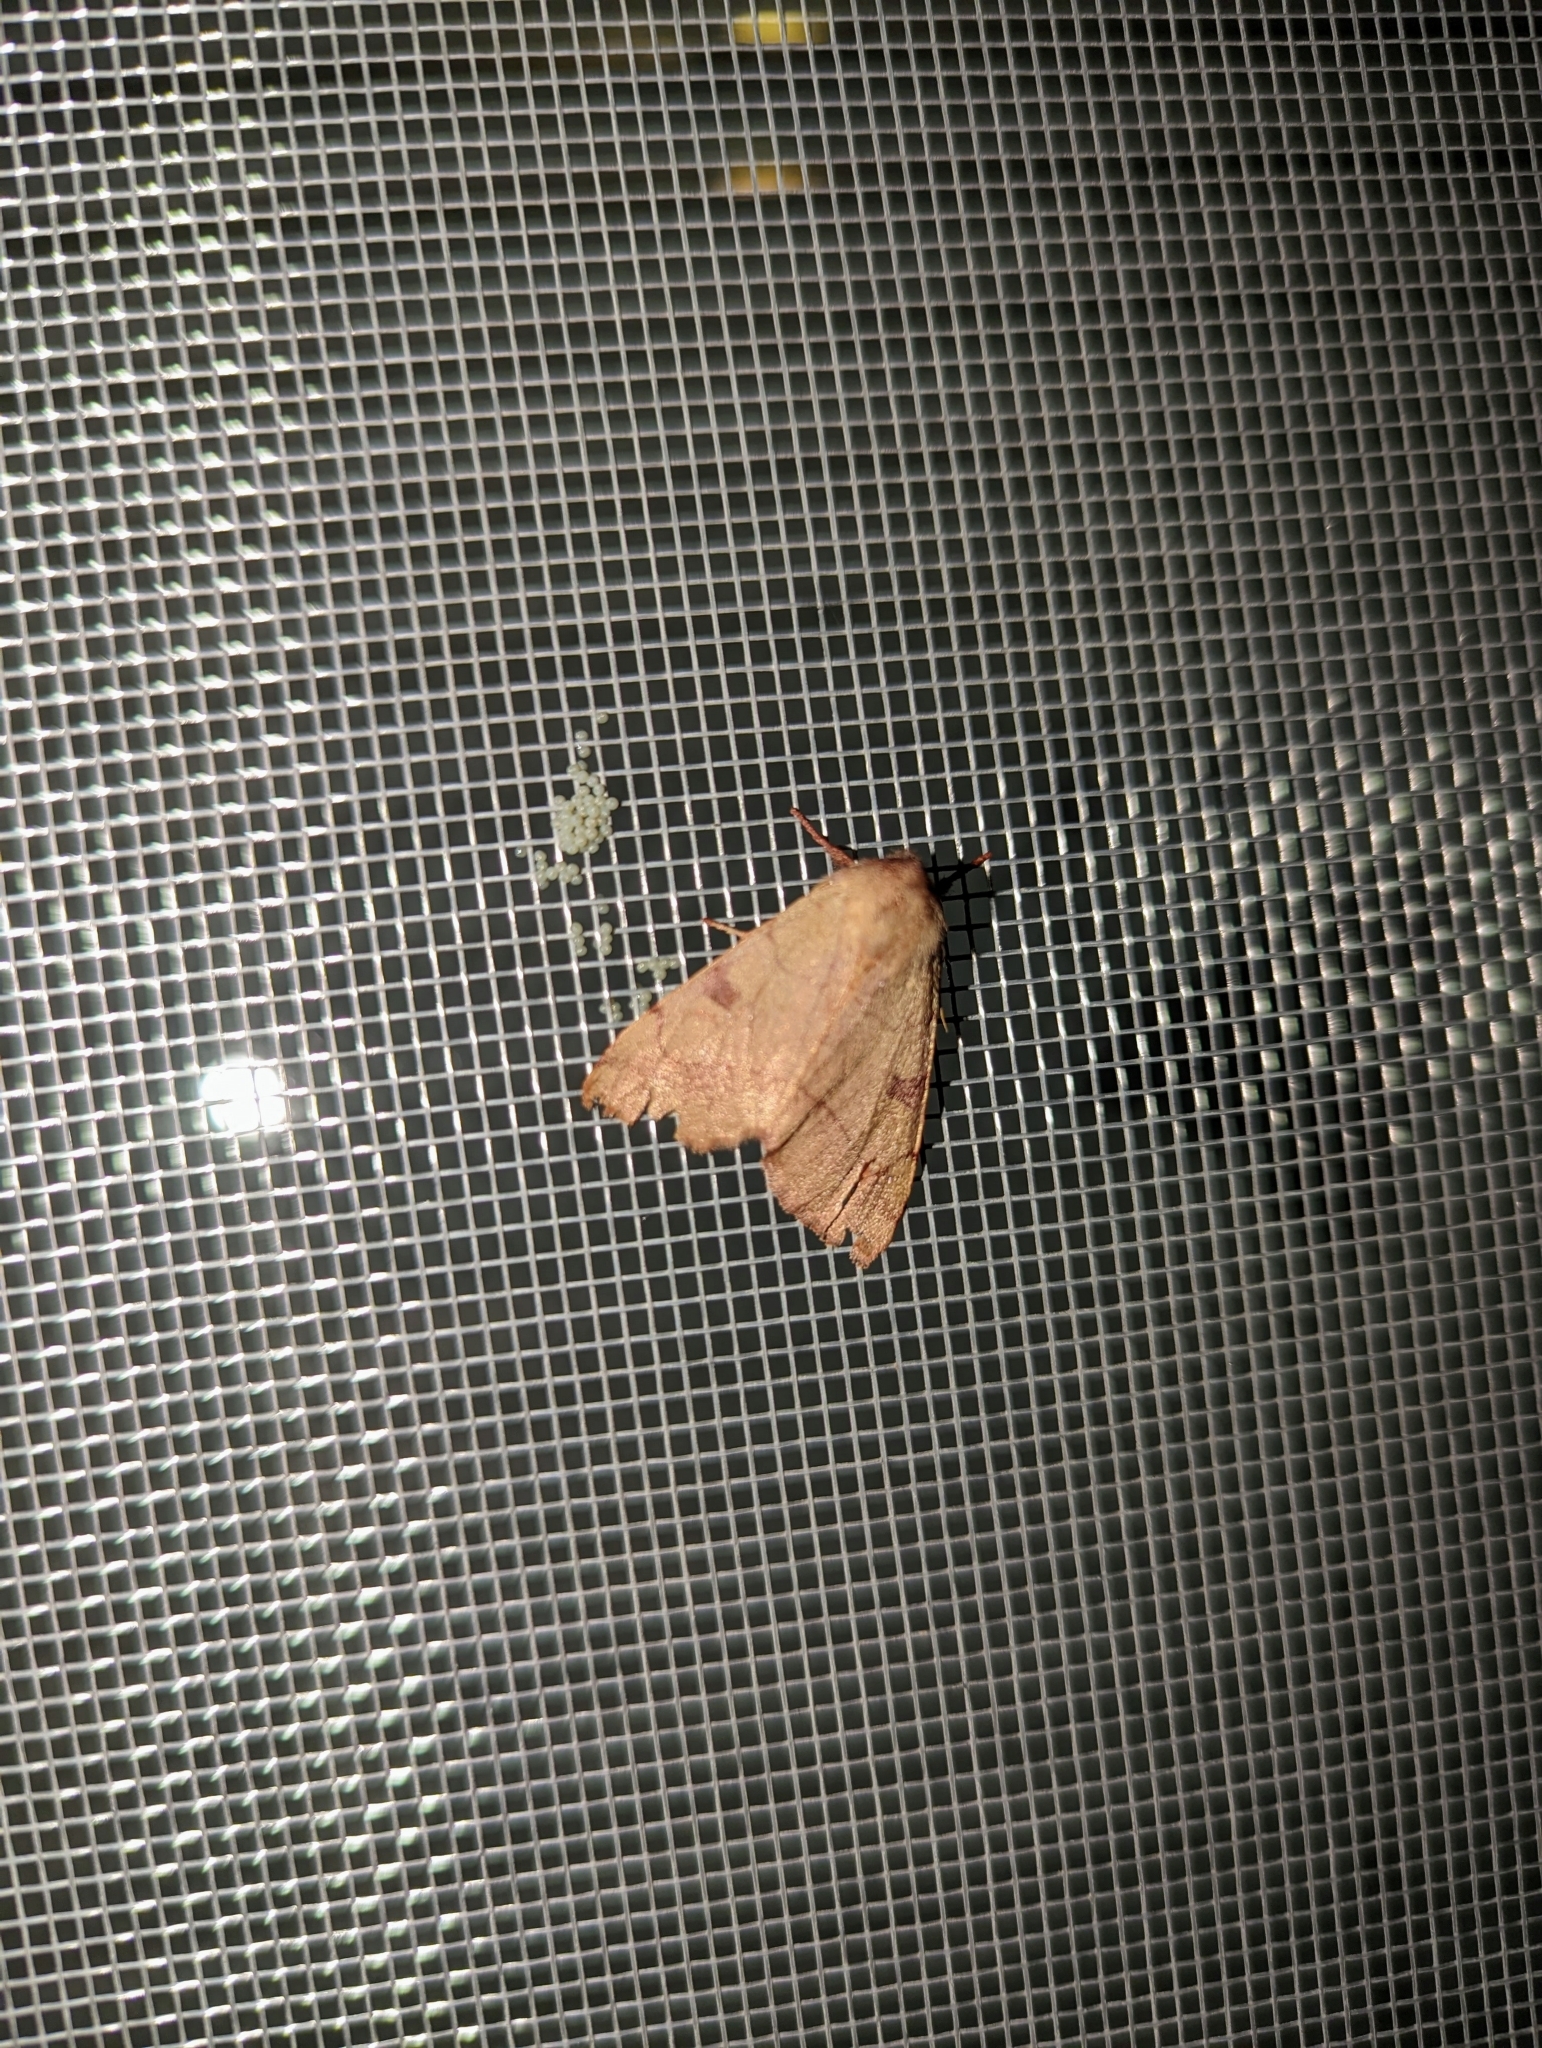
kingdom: Animalia
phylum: Arthropoda
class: Insecta
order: Lepidoptera
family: Noctuidae
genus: Choephora
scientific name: Choephora fungorum
